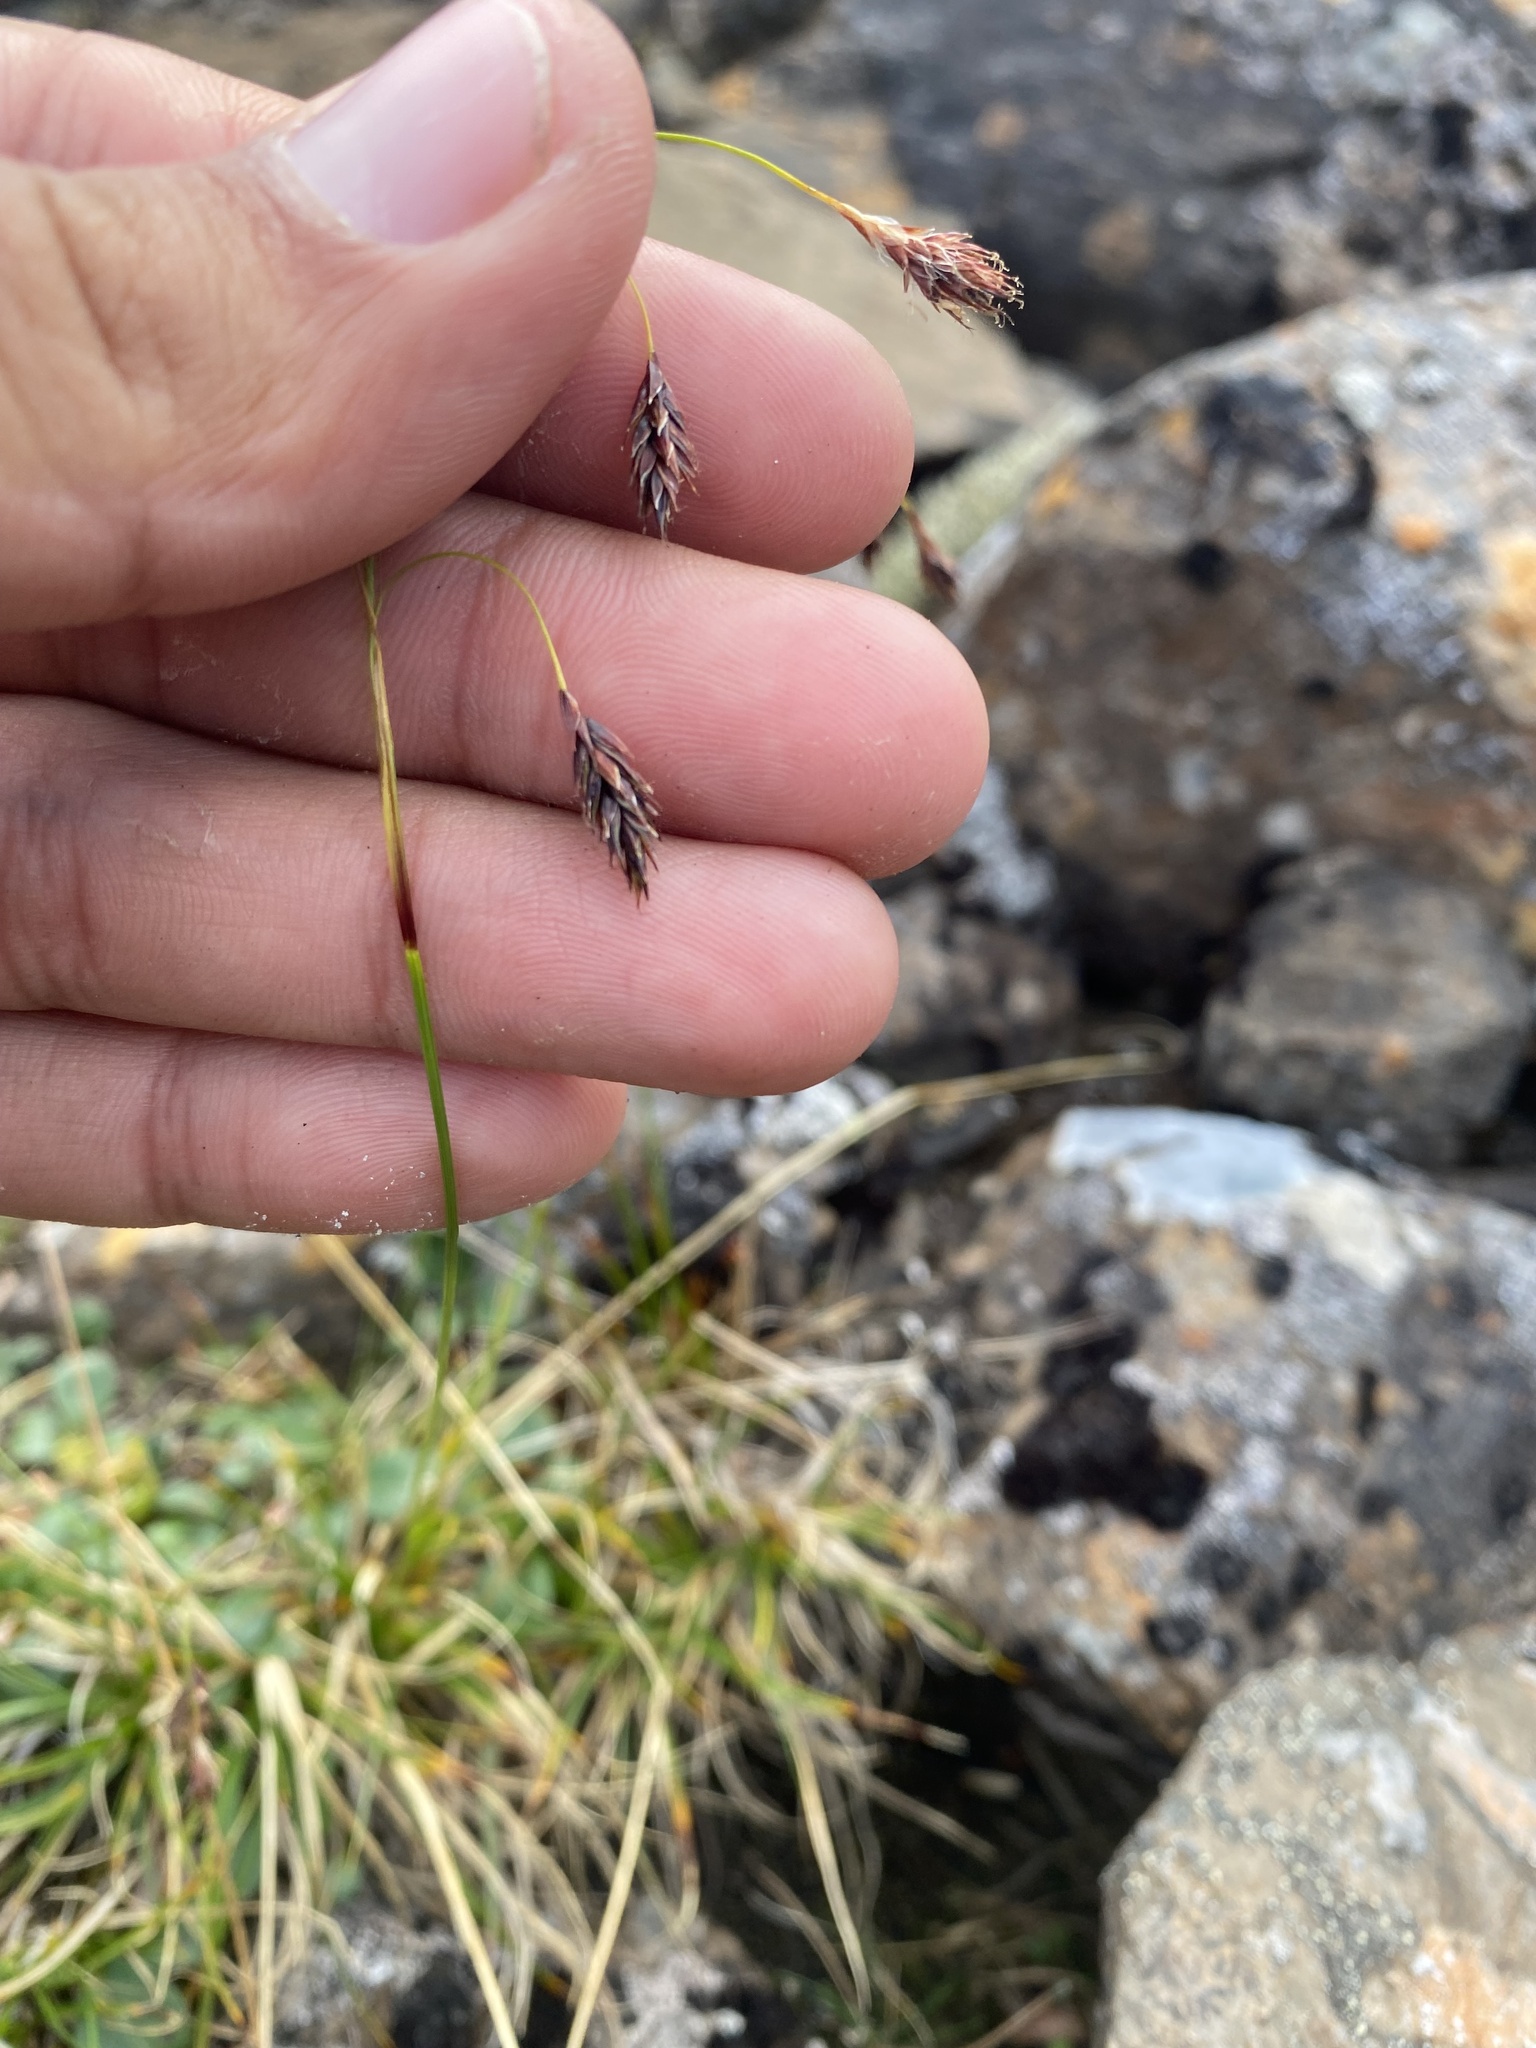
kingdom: Plantae
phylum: Tracheophyta
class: Liliopsida
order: Poales
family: Cyperaceae
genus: Carex
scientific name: Carex fuliginosa
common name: Few-flowered sedge
